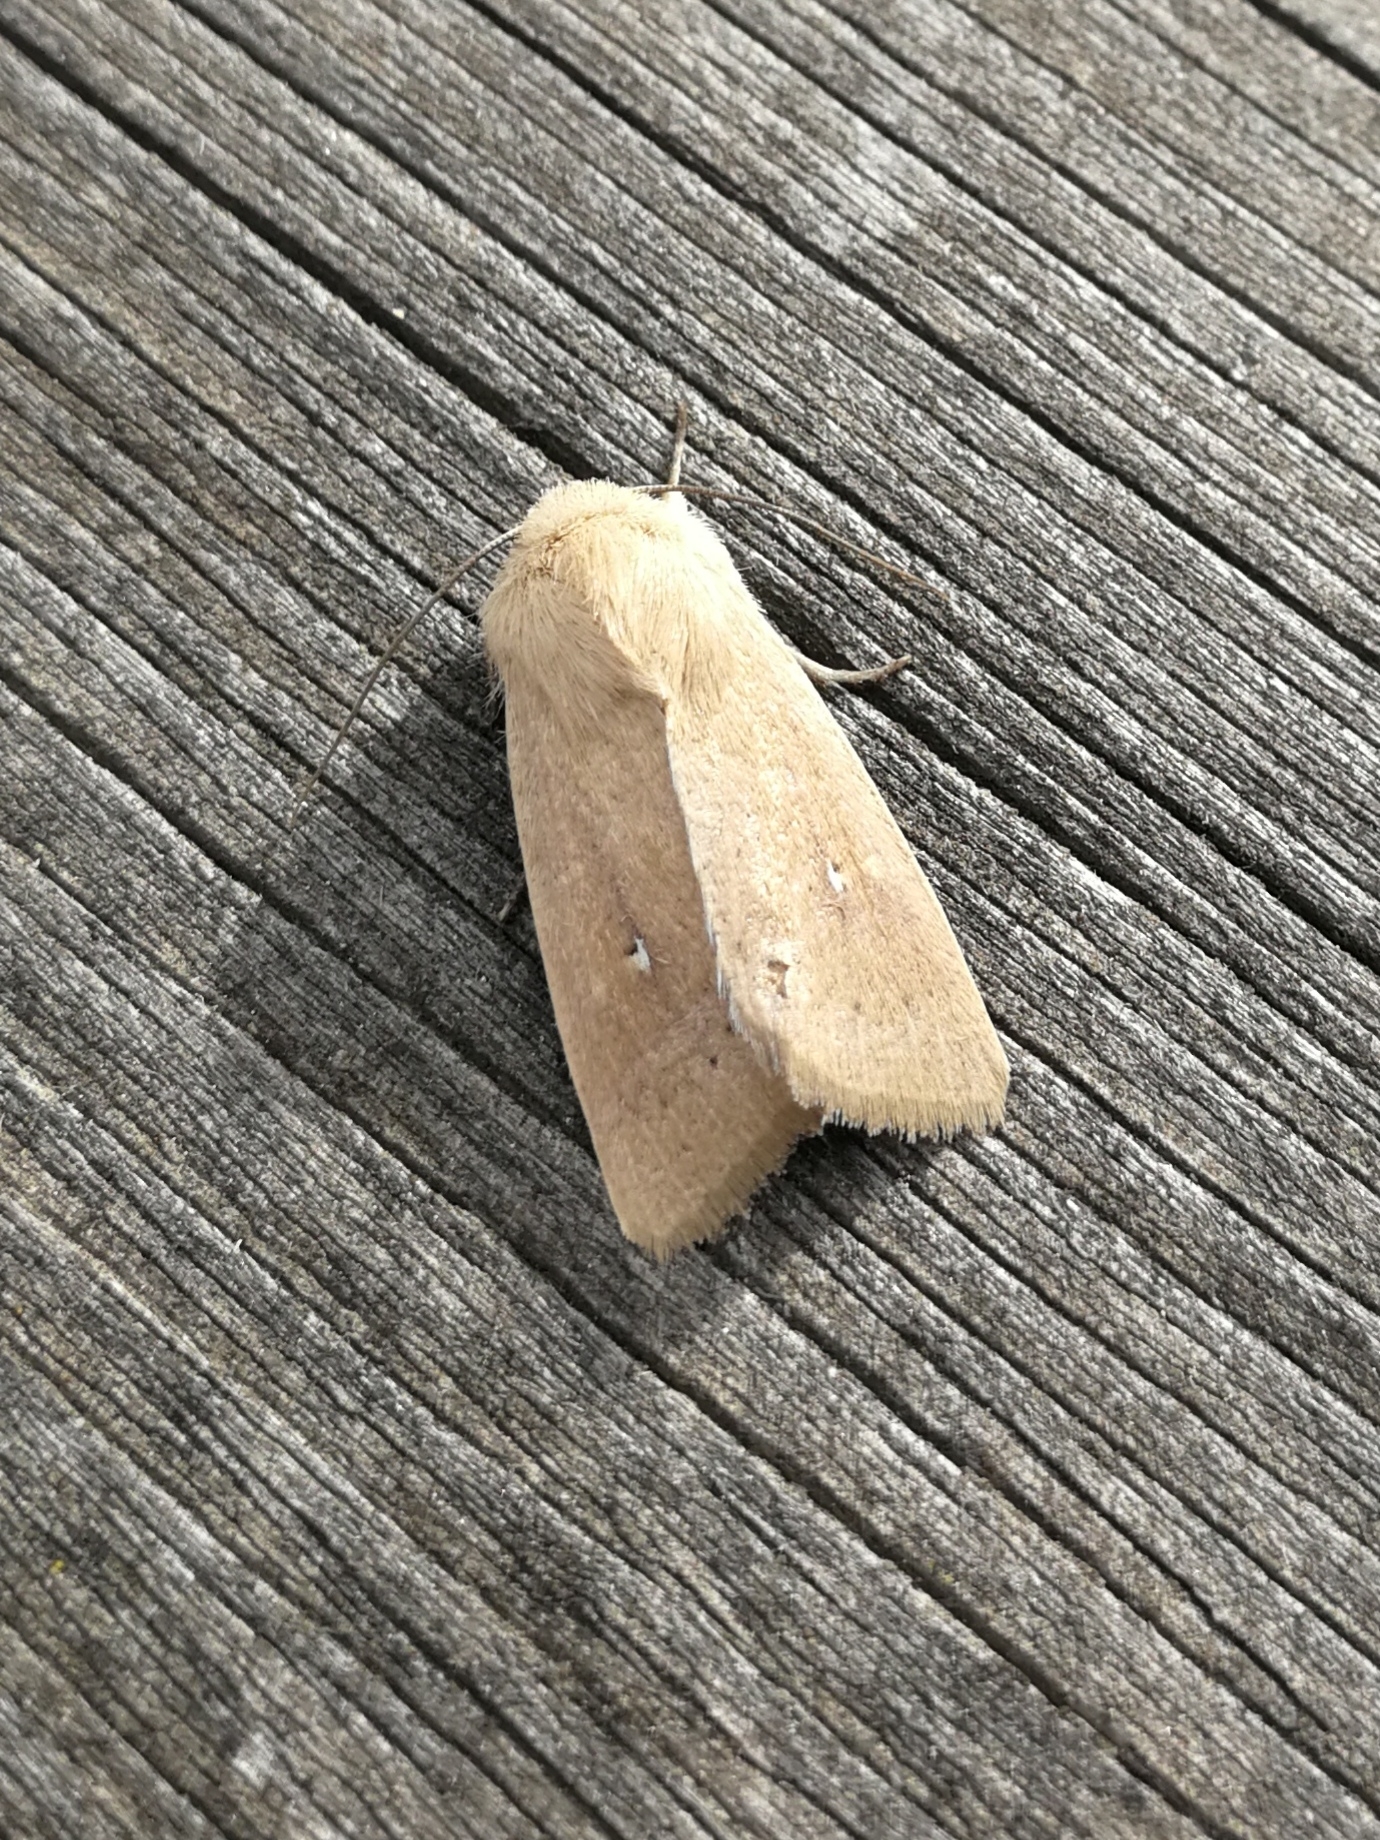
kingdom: Animalia
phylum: Arthropoda
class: Insecta
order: Lepidoptera
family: Noctuidae
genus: Mythimna
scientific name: Mythimna sicula
